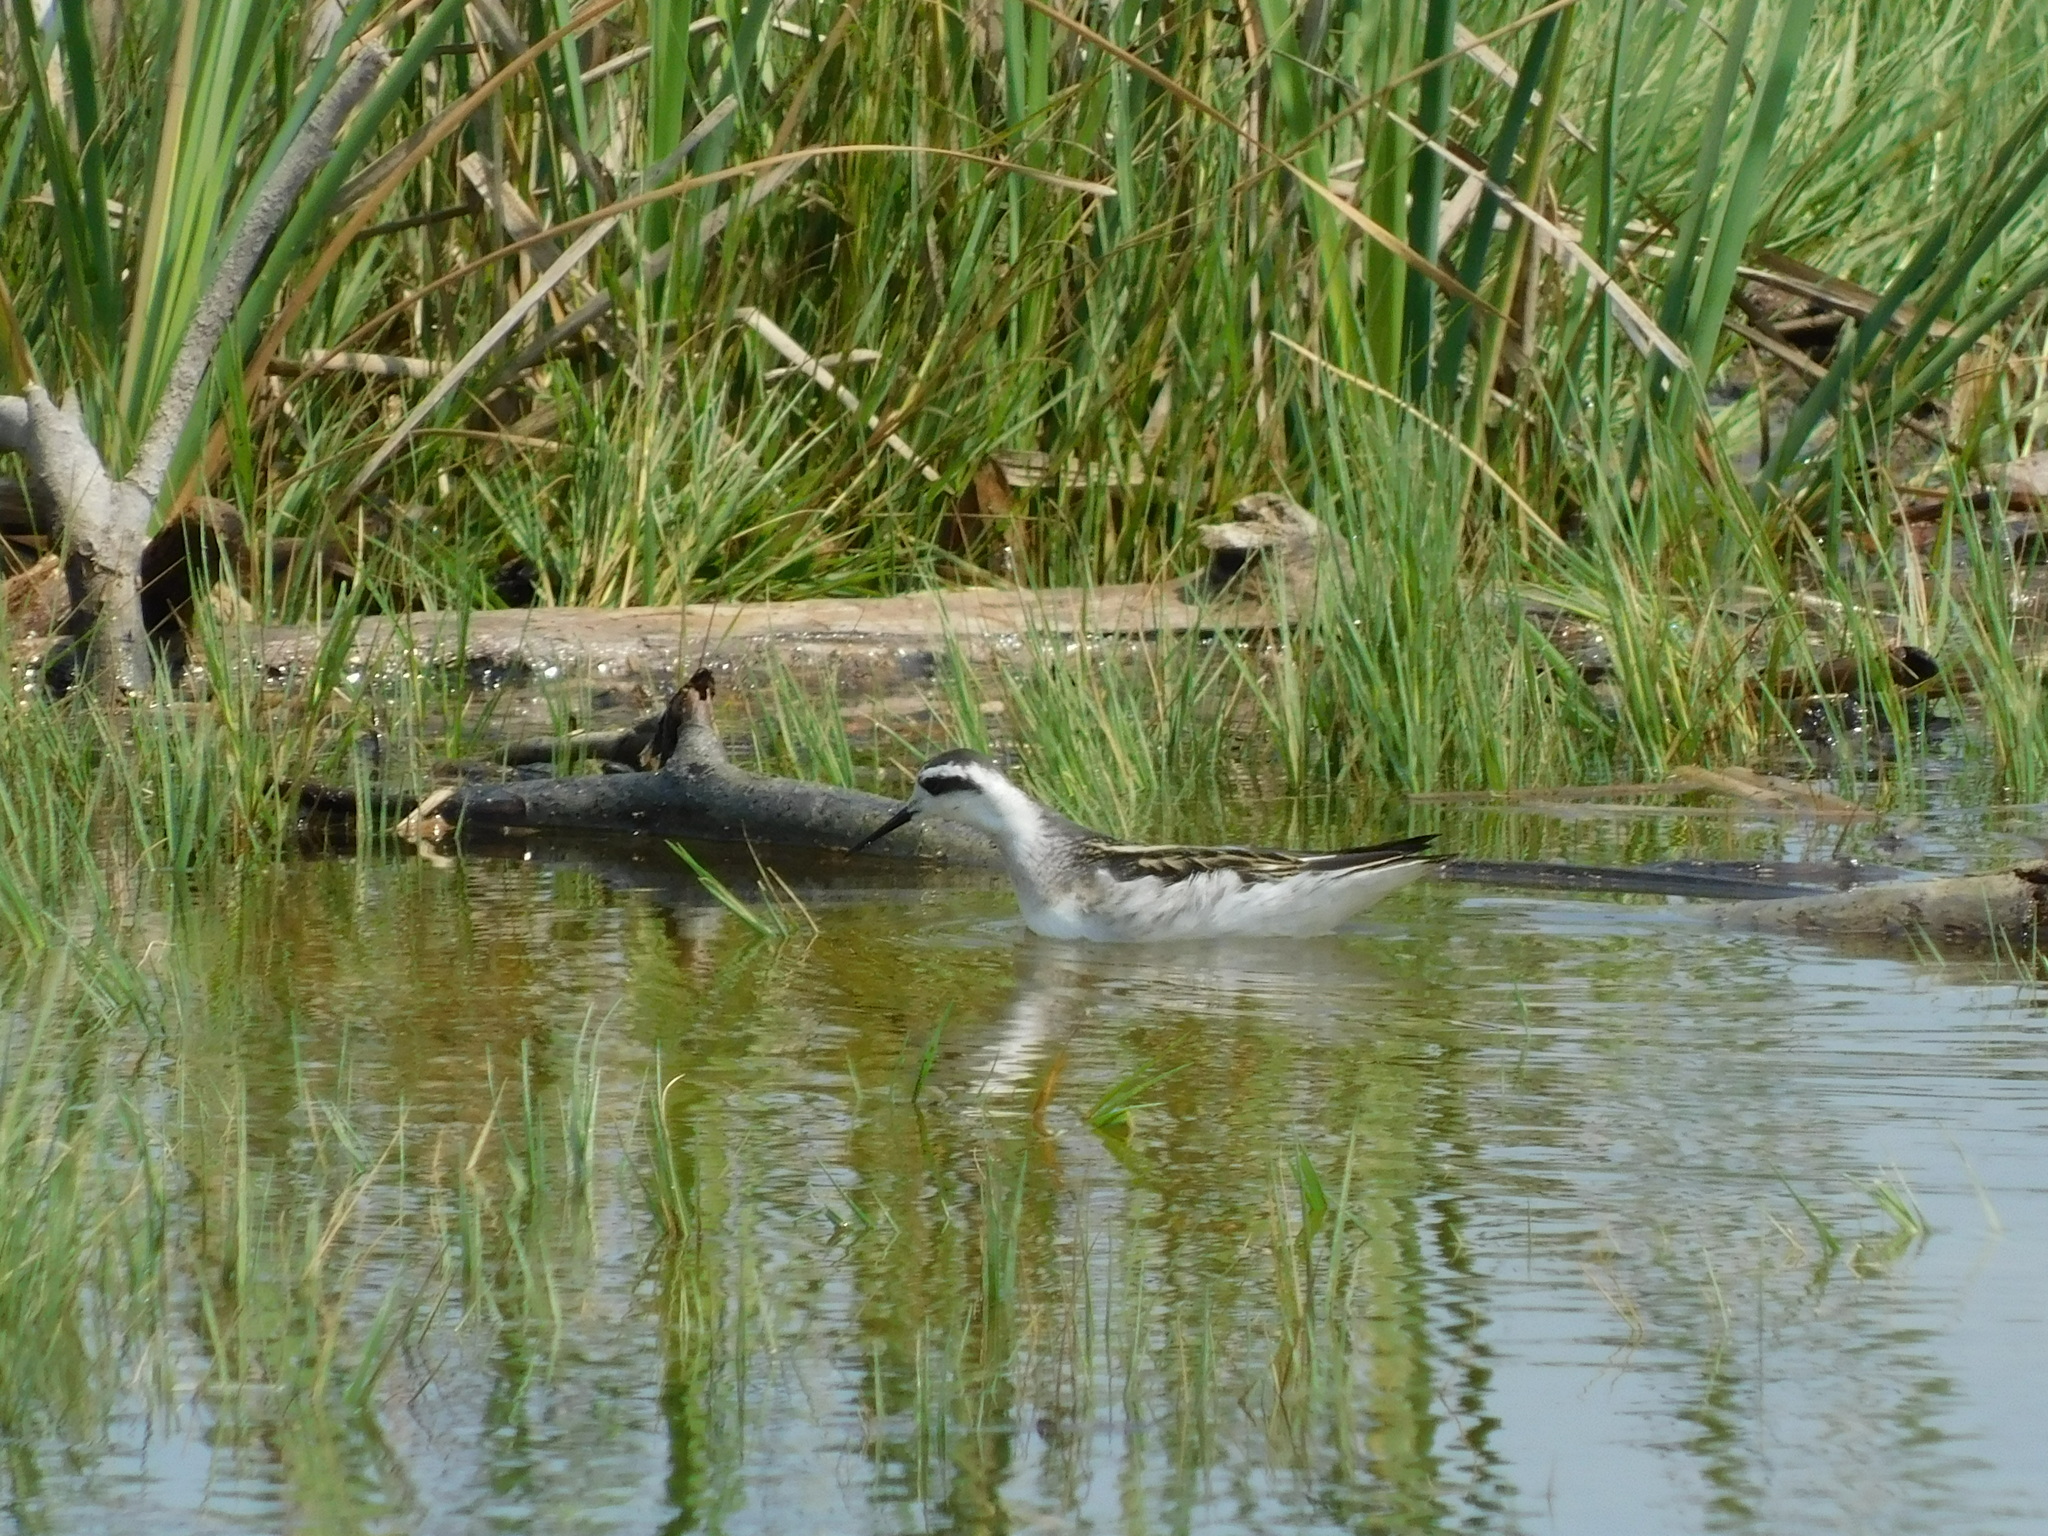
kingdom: Animalia
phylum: Chordata
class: Aves
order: Charadriiformes
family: Scolopacidae
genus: Phalaropus
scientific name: Phalaropus lobatus
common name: Red-necked phalarope
